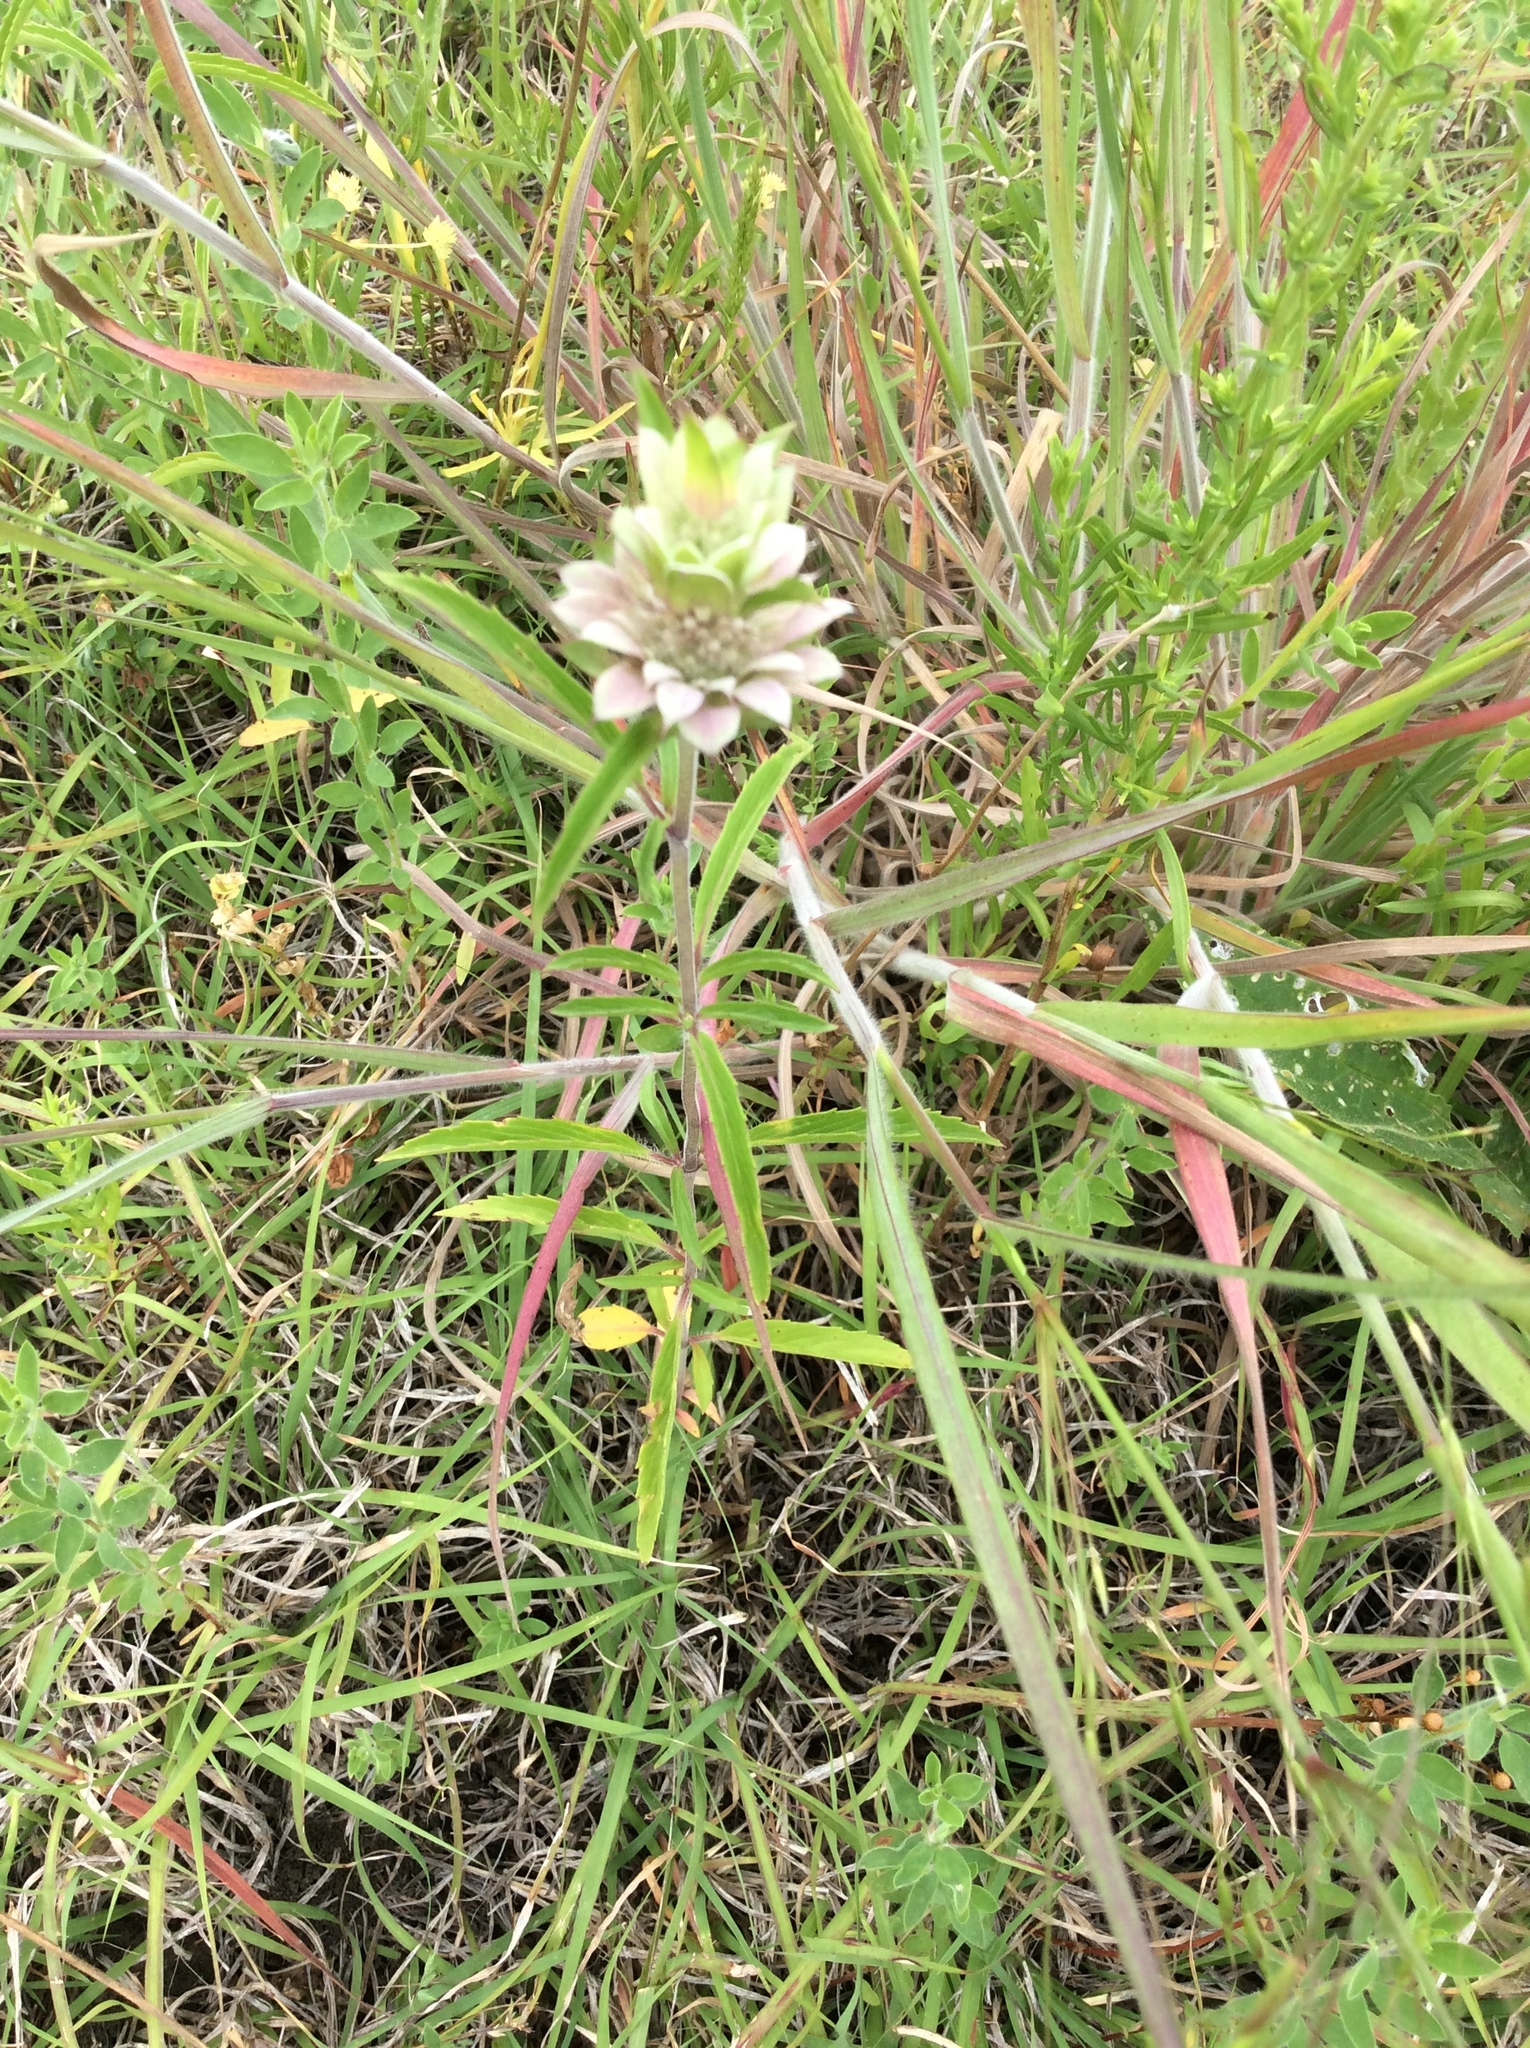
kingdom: Plantae
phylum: Tracheophyta
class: Magnoliopsida
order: Lamiales
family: Lamiaceae
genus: Monarda
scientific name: Monarda citriodora
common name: Lemon beebalm
